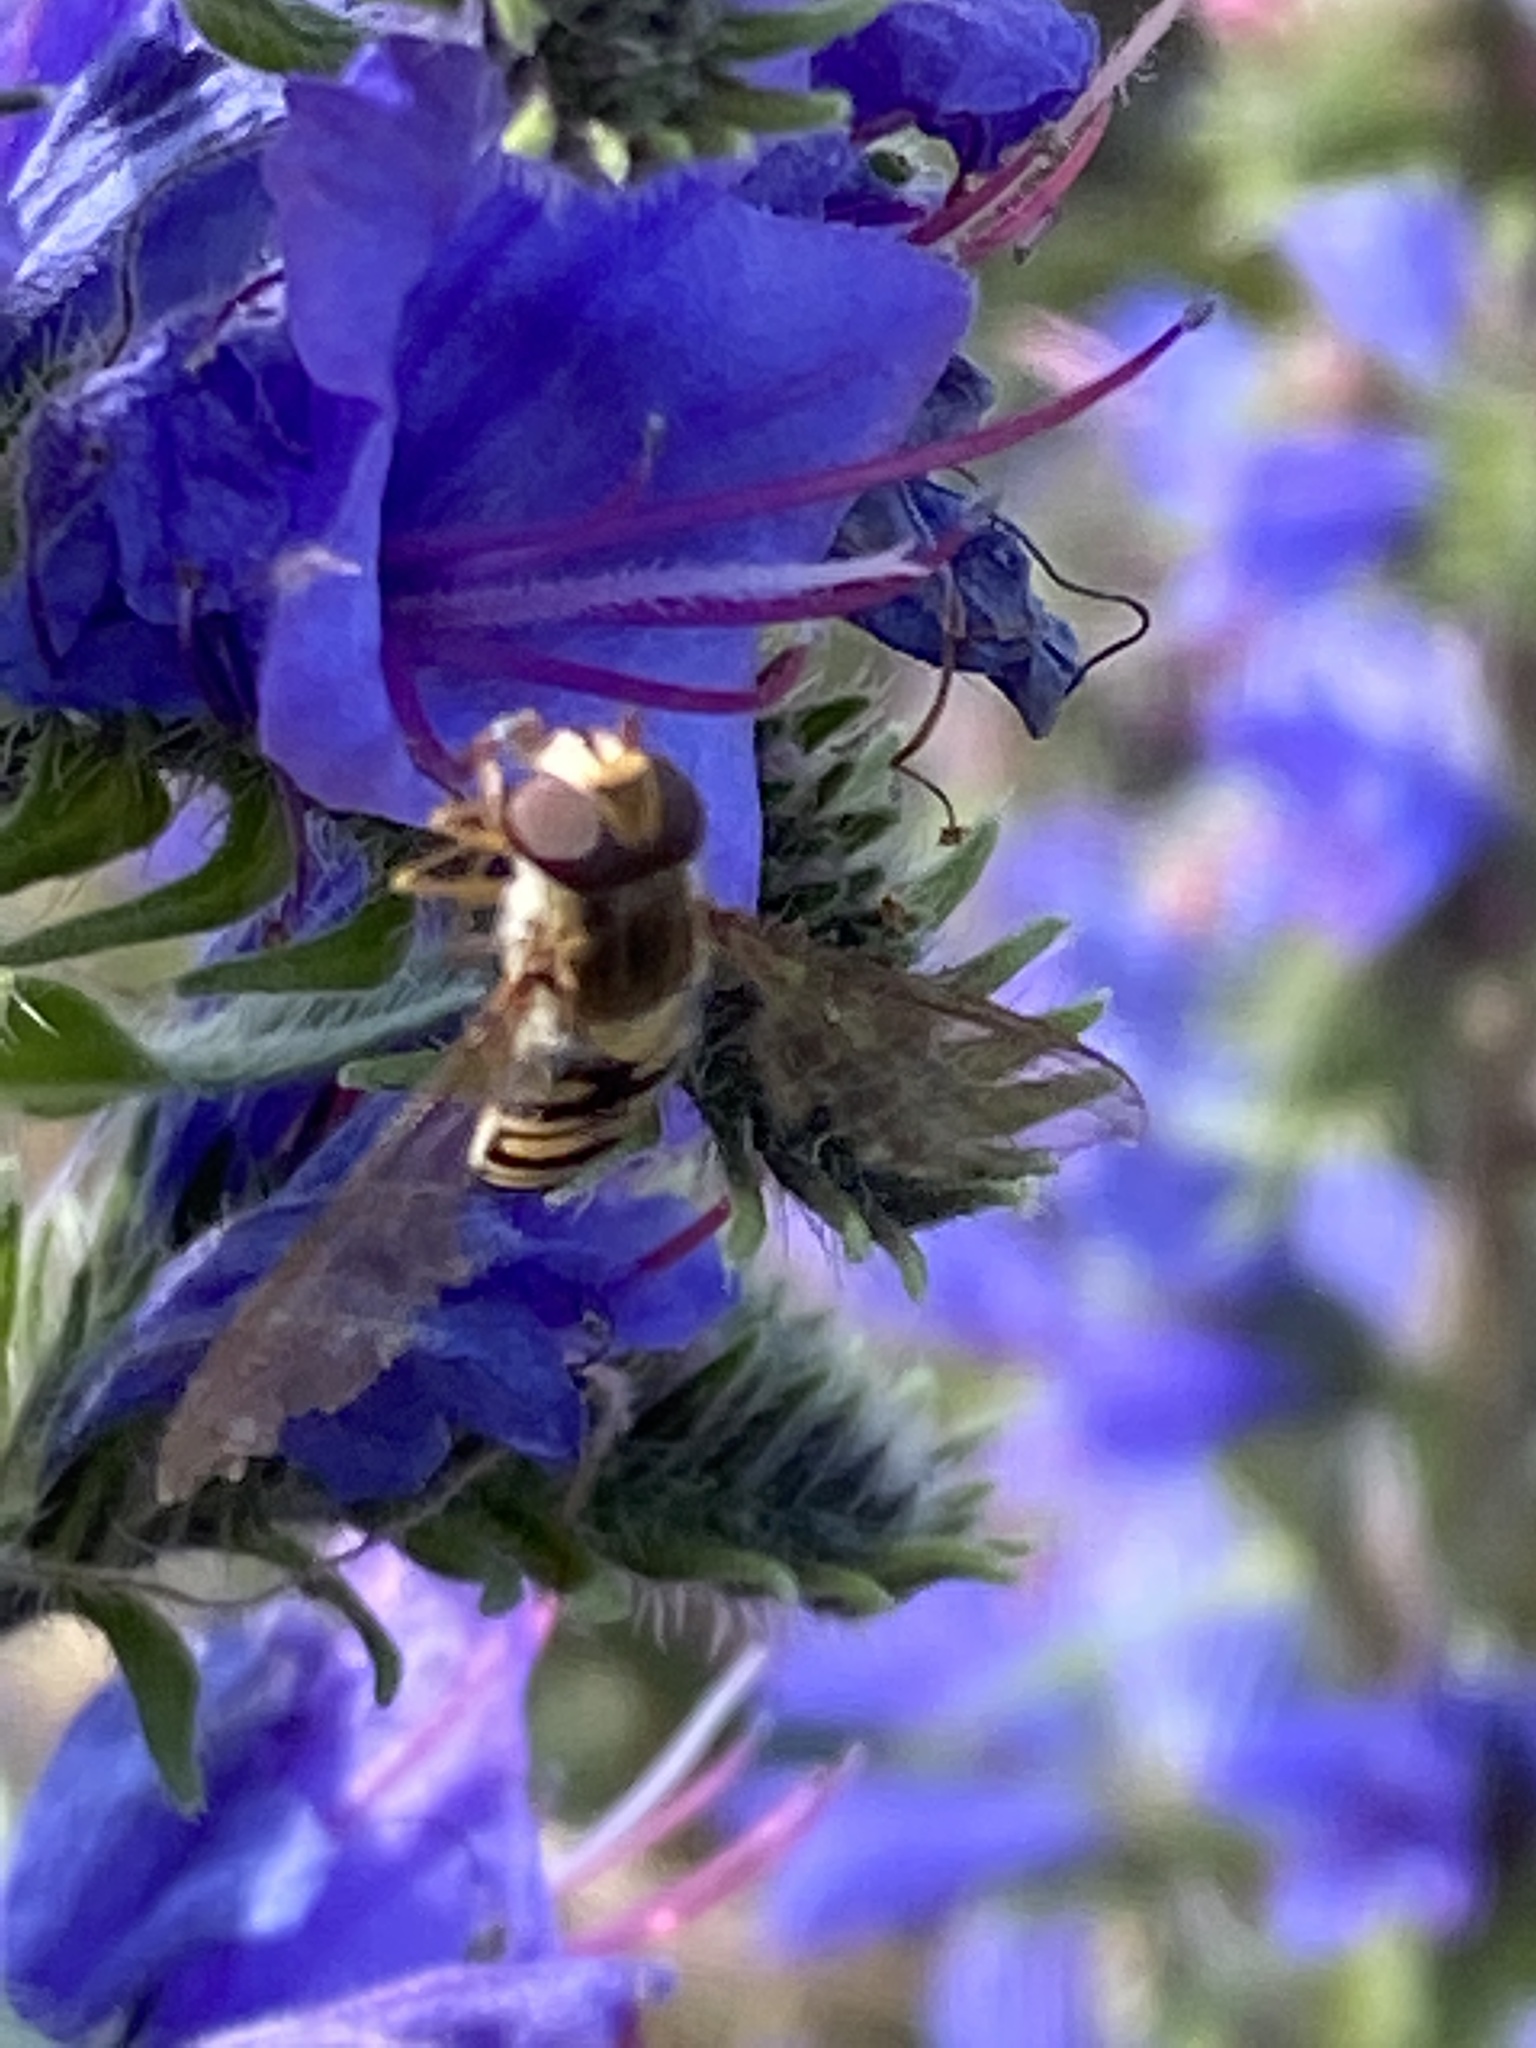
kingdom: Animalia
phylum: Arthropoda
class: Insecta
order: Diptera
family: Syrphidae
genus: Episyrphus
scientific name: Episyrphus balteatus
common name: Marmalade hoverfly
